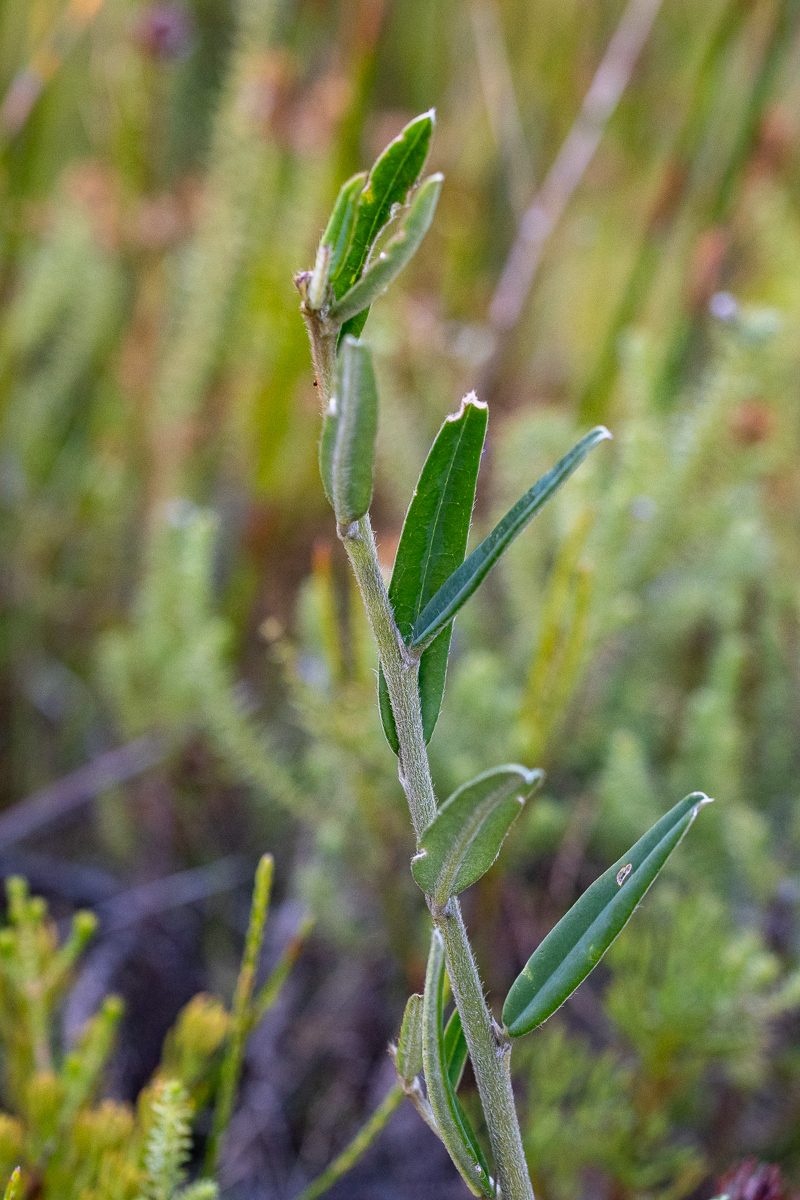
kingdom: Plantae
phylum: Tracheophyta
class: Magnoliopsida
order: Fabales
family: Fabaceae
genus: Podalyria
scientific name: Podalyria oleifolia
